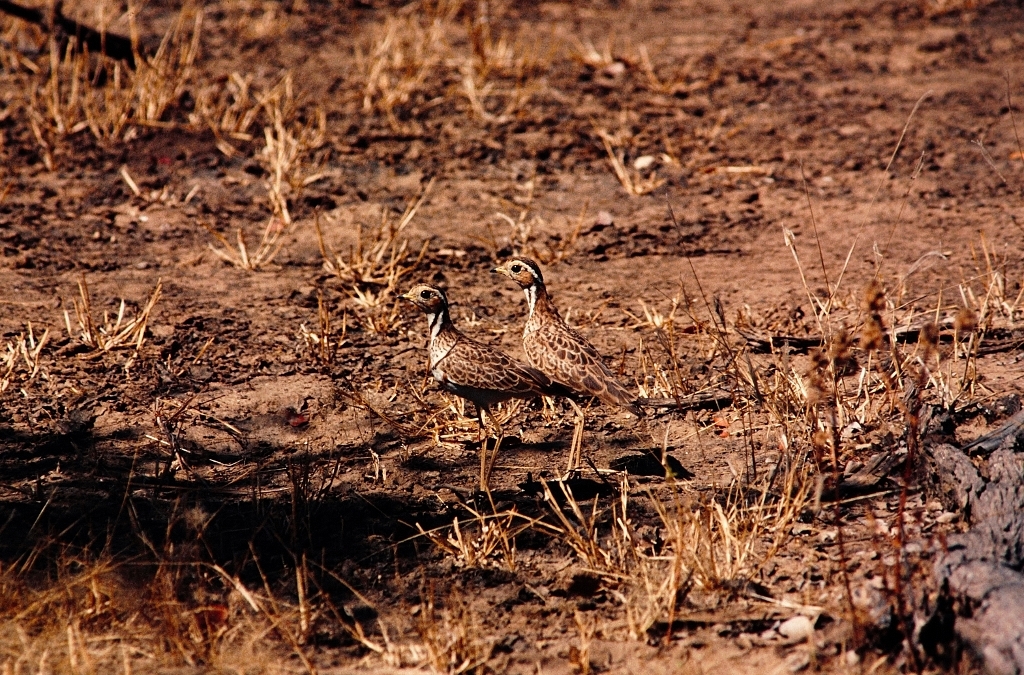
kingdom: Animalia
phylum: Chordata
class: Aves
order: Charadriiformes
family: Glareolidae
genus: Rhinoptilus
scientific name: Rhinoptilus cinctus
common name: Three-banded courser
